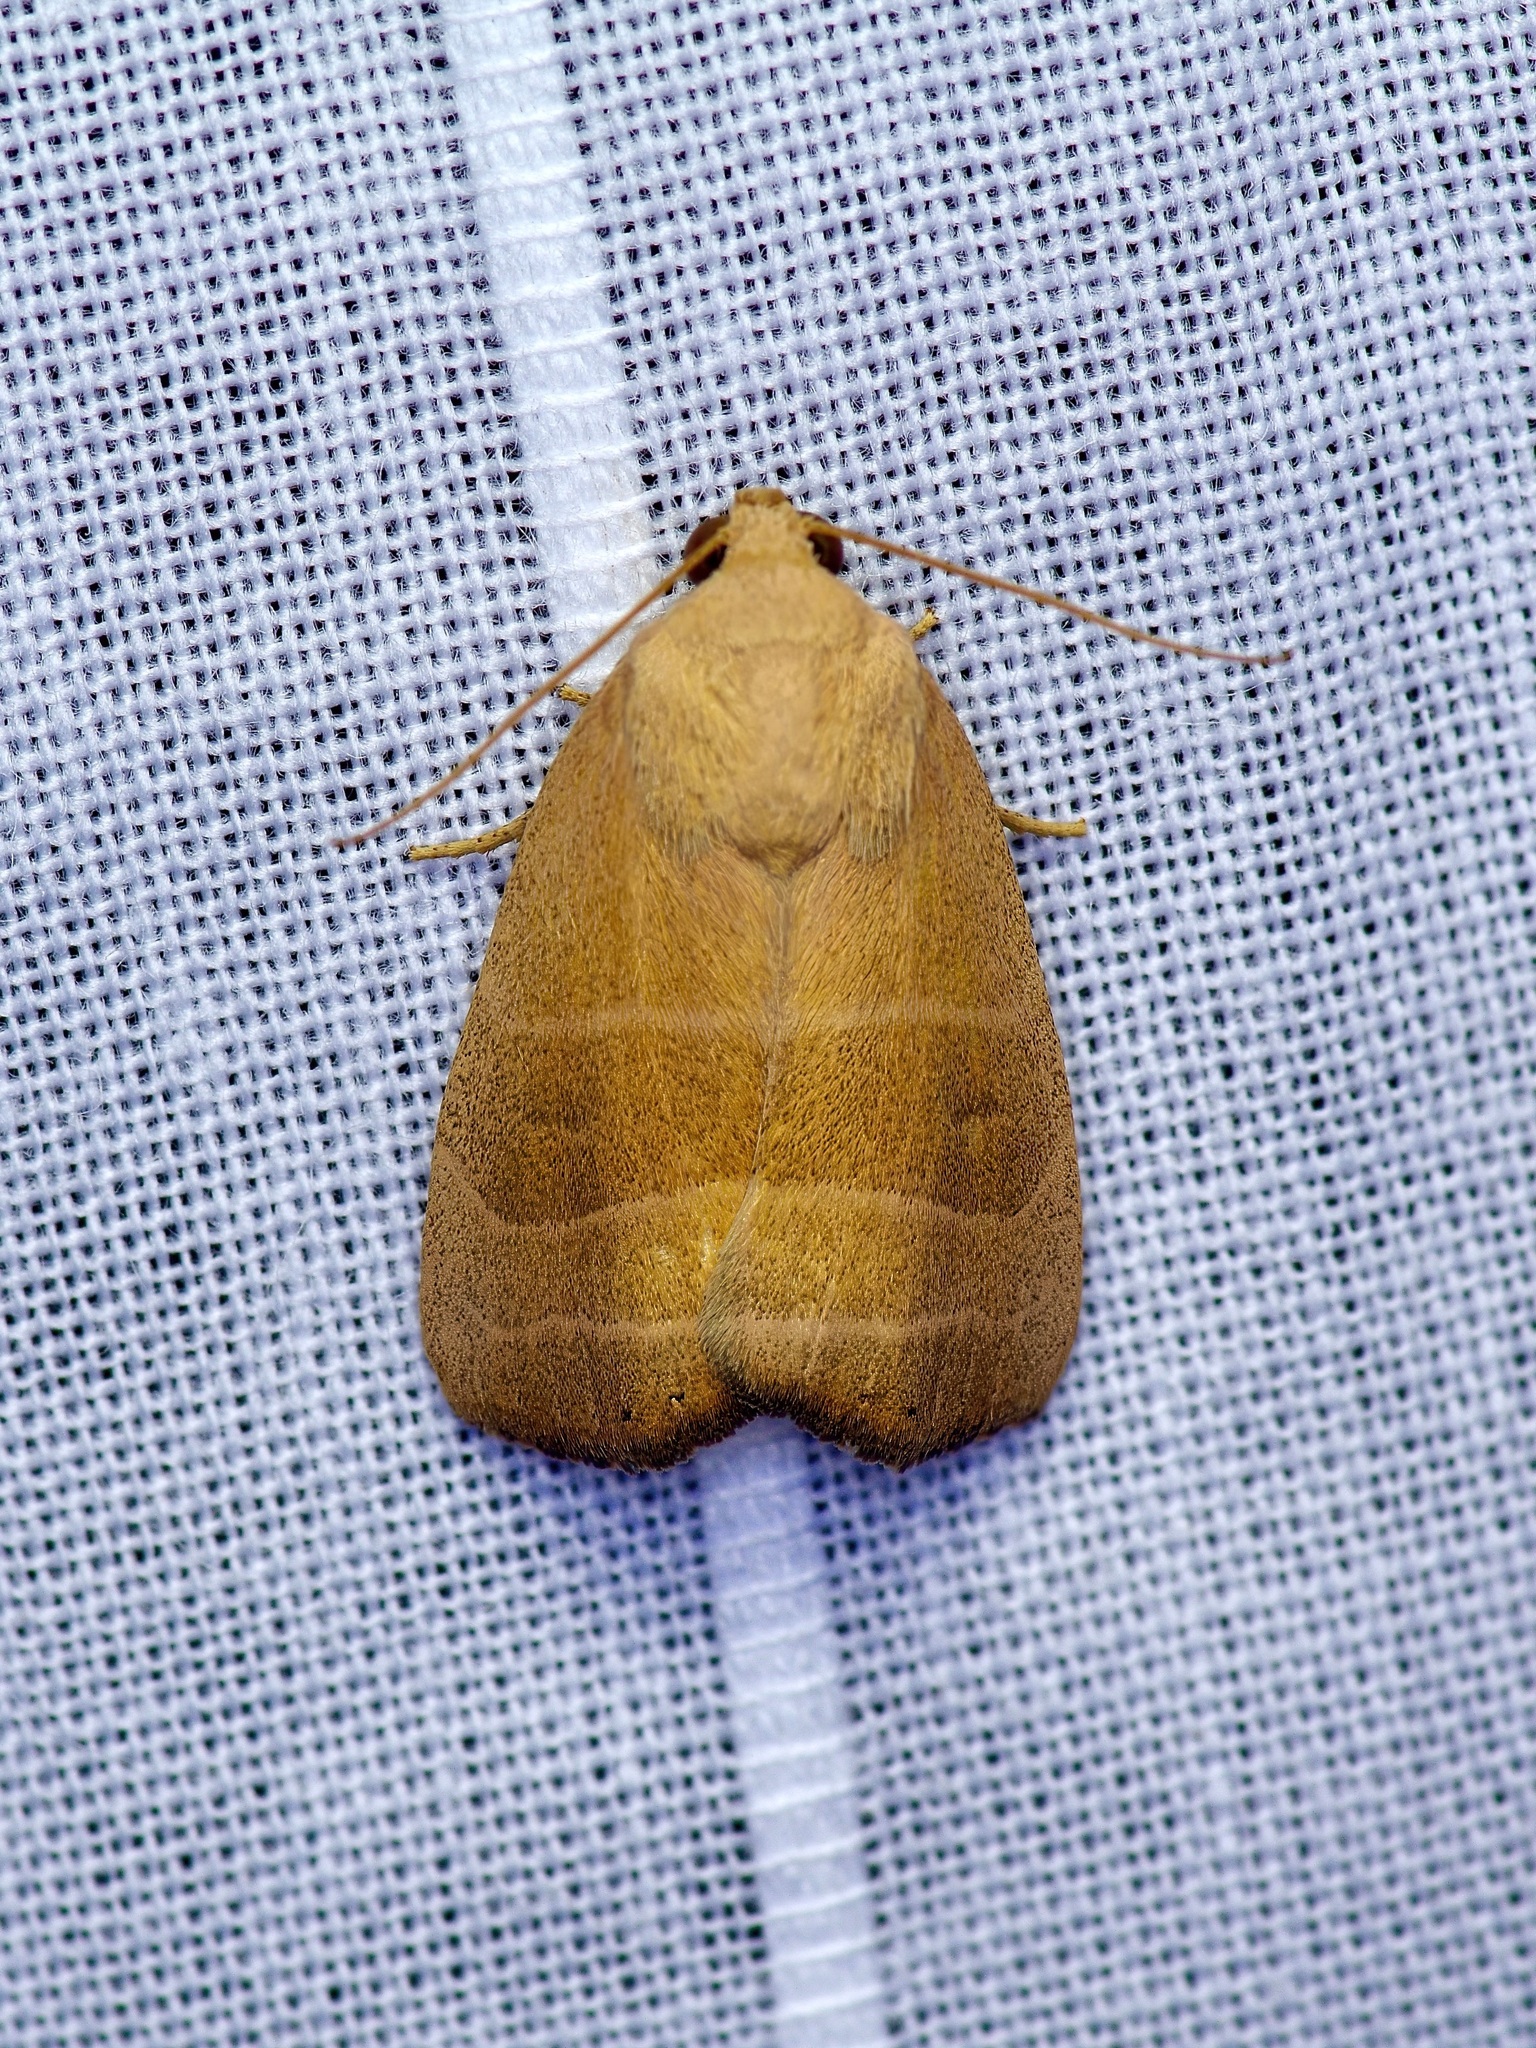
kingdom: Animalia
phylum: Arthropoda
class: Insecta
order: Lepidoptera
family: Noctuidae
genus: Bagisara
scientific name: Bagisara rectifascia
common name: Straight lined mallow moth
